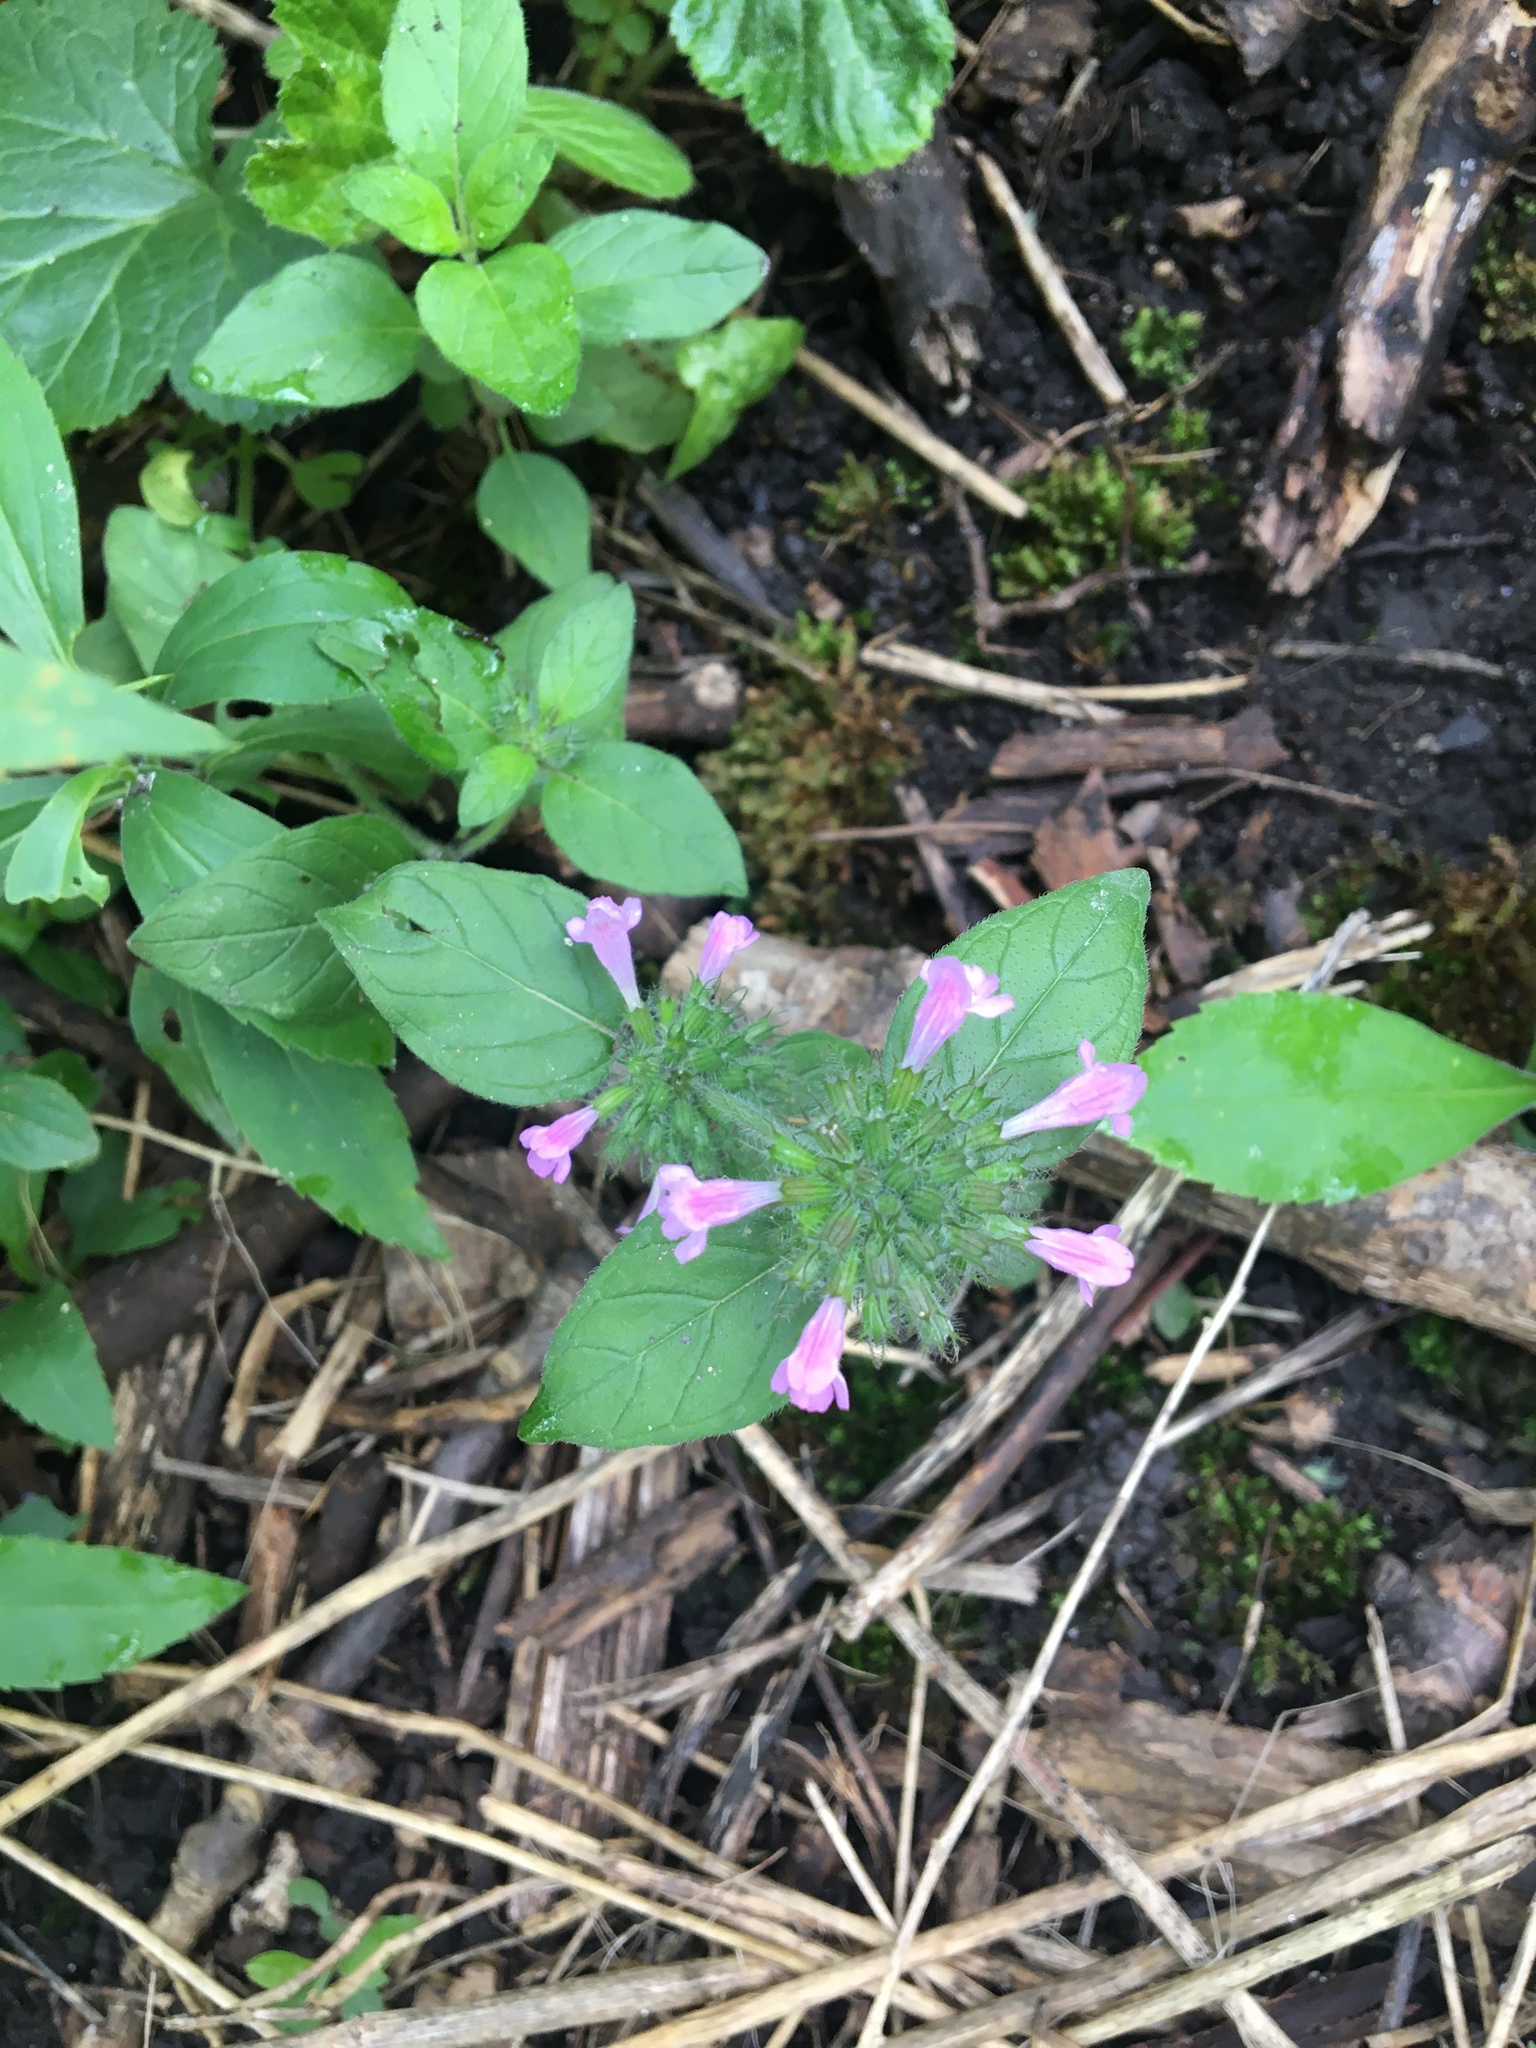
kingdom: Plantae
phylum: Tracheophyta
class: Magnoliopsida
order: Lamiales
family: Lamiaceae
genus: Clinopodium
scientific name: Clinopodium vulgare
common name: Wild basil
